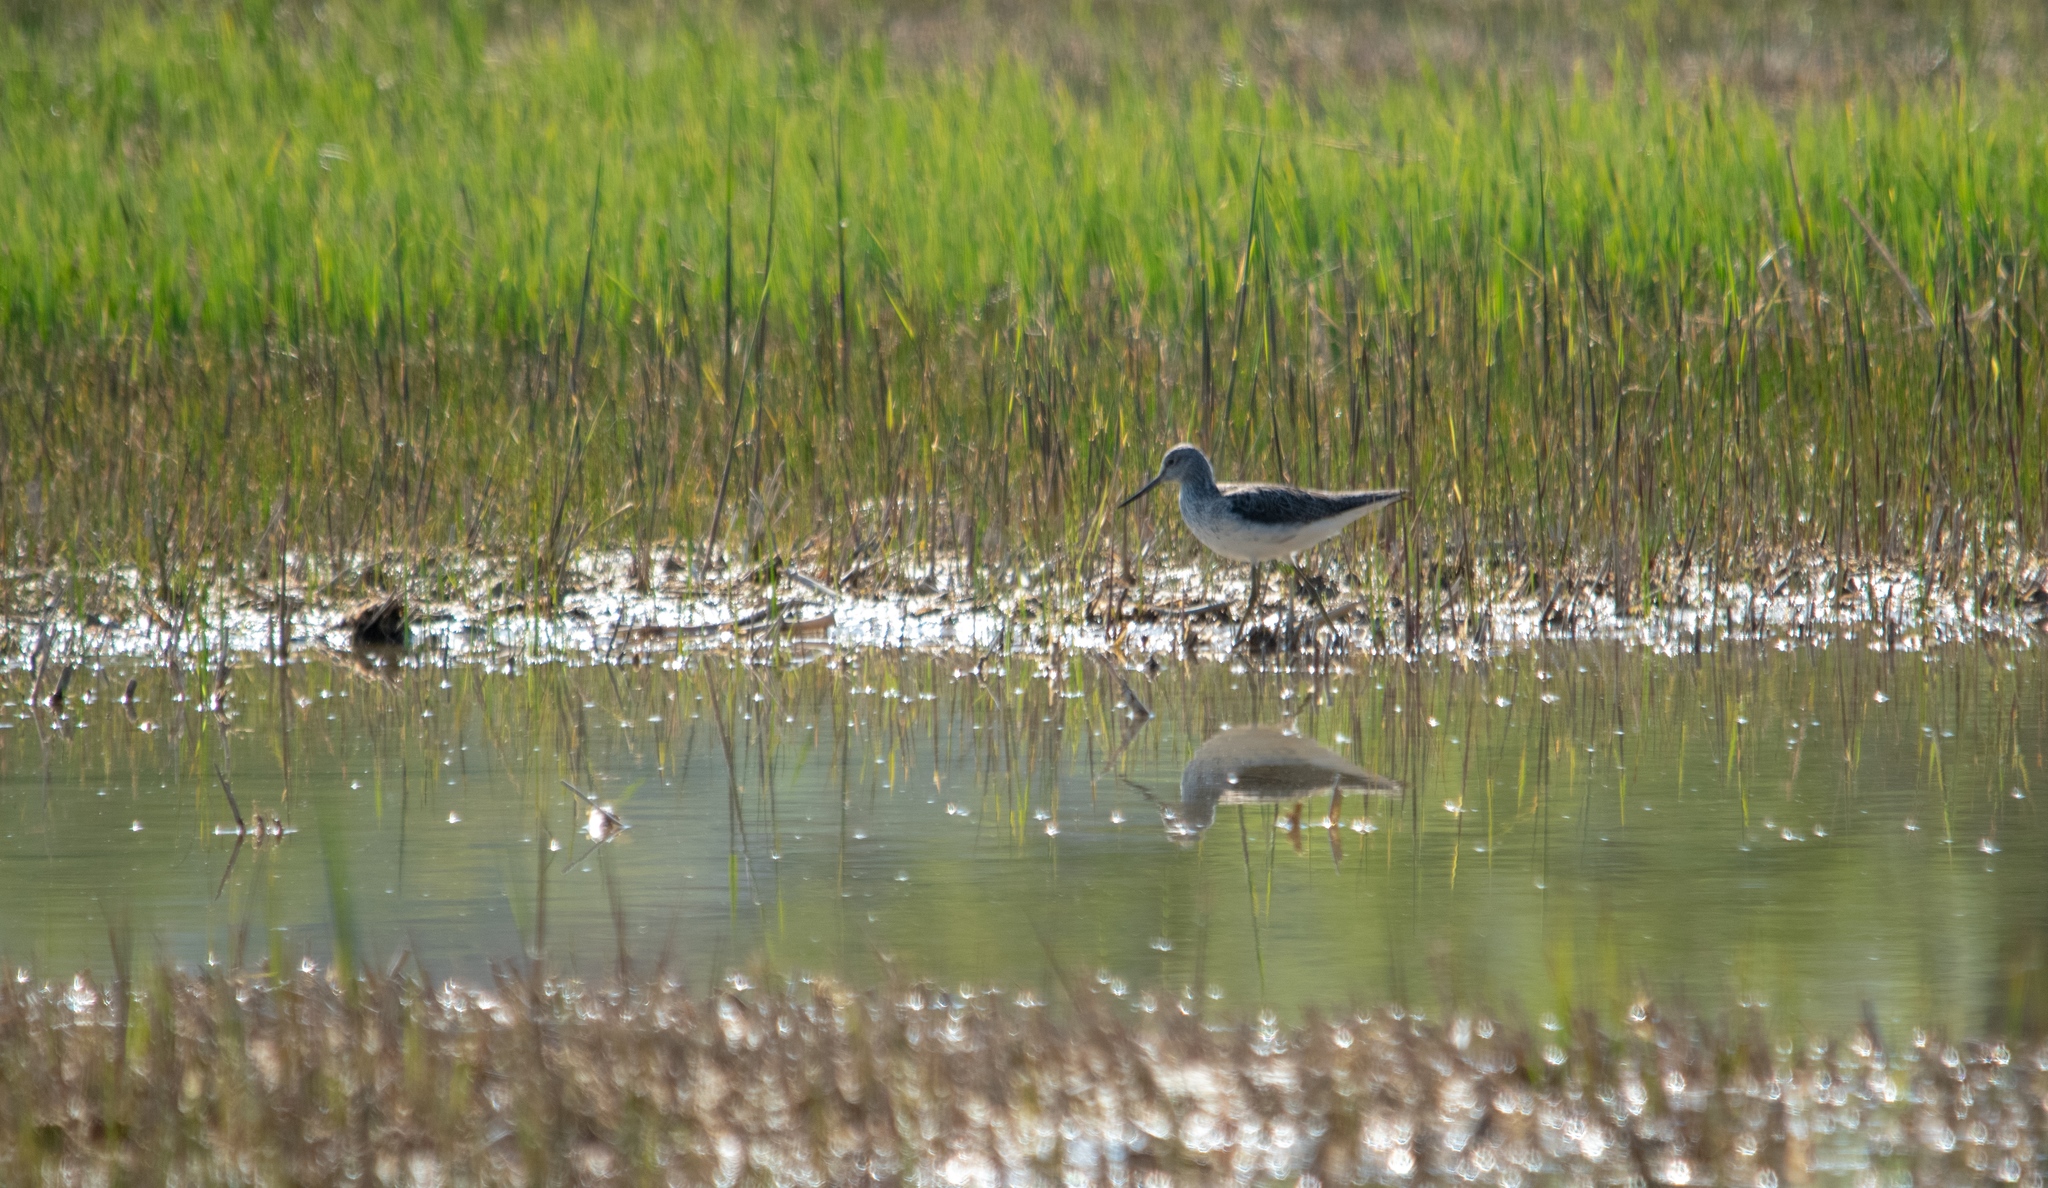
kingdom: Animalia
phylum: Chordata
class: Aves
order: Charadriiformes
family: Scolopacidae
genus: Tringa
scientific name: Tringa nebularia
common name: Common greenshank
